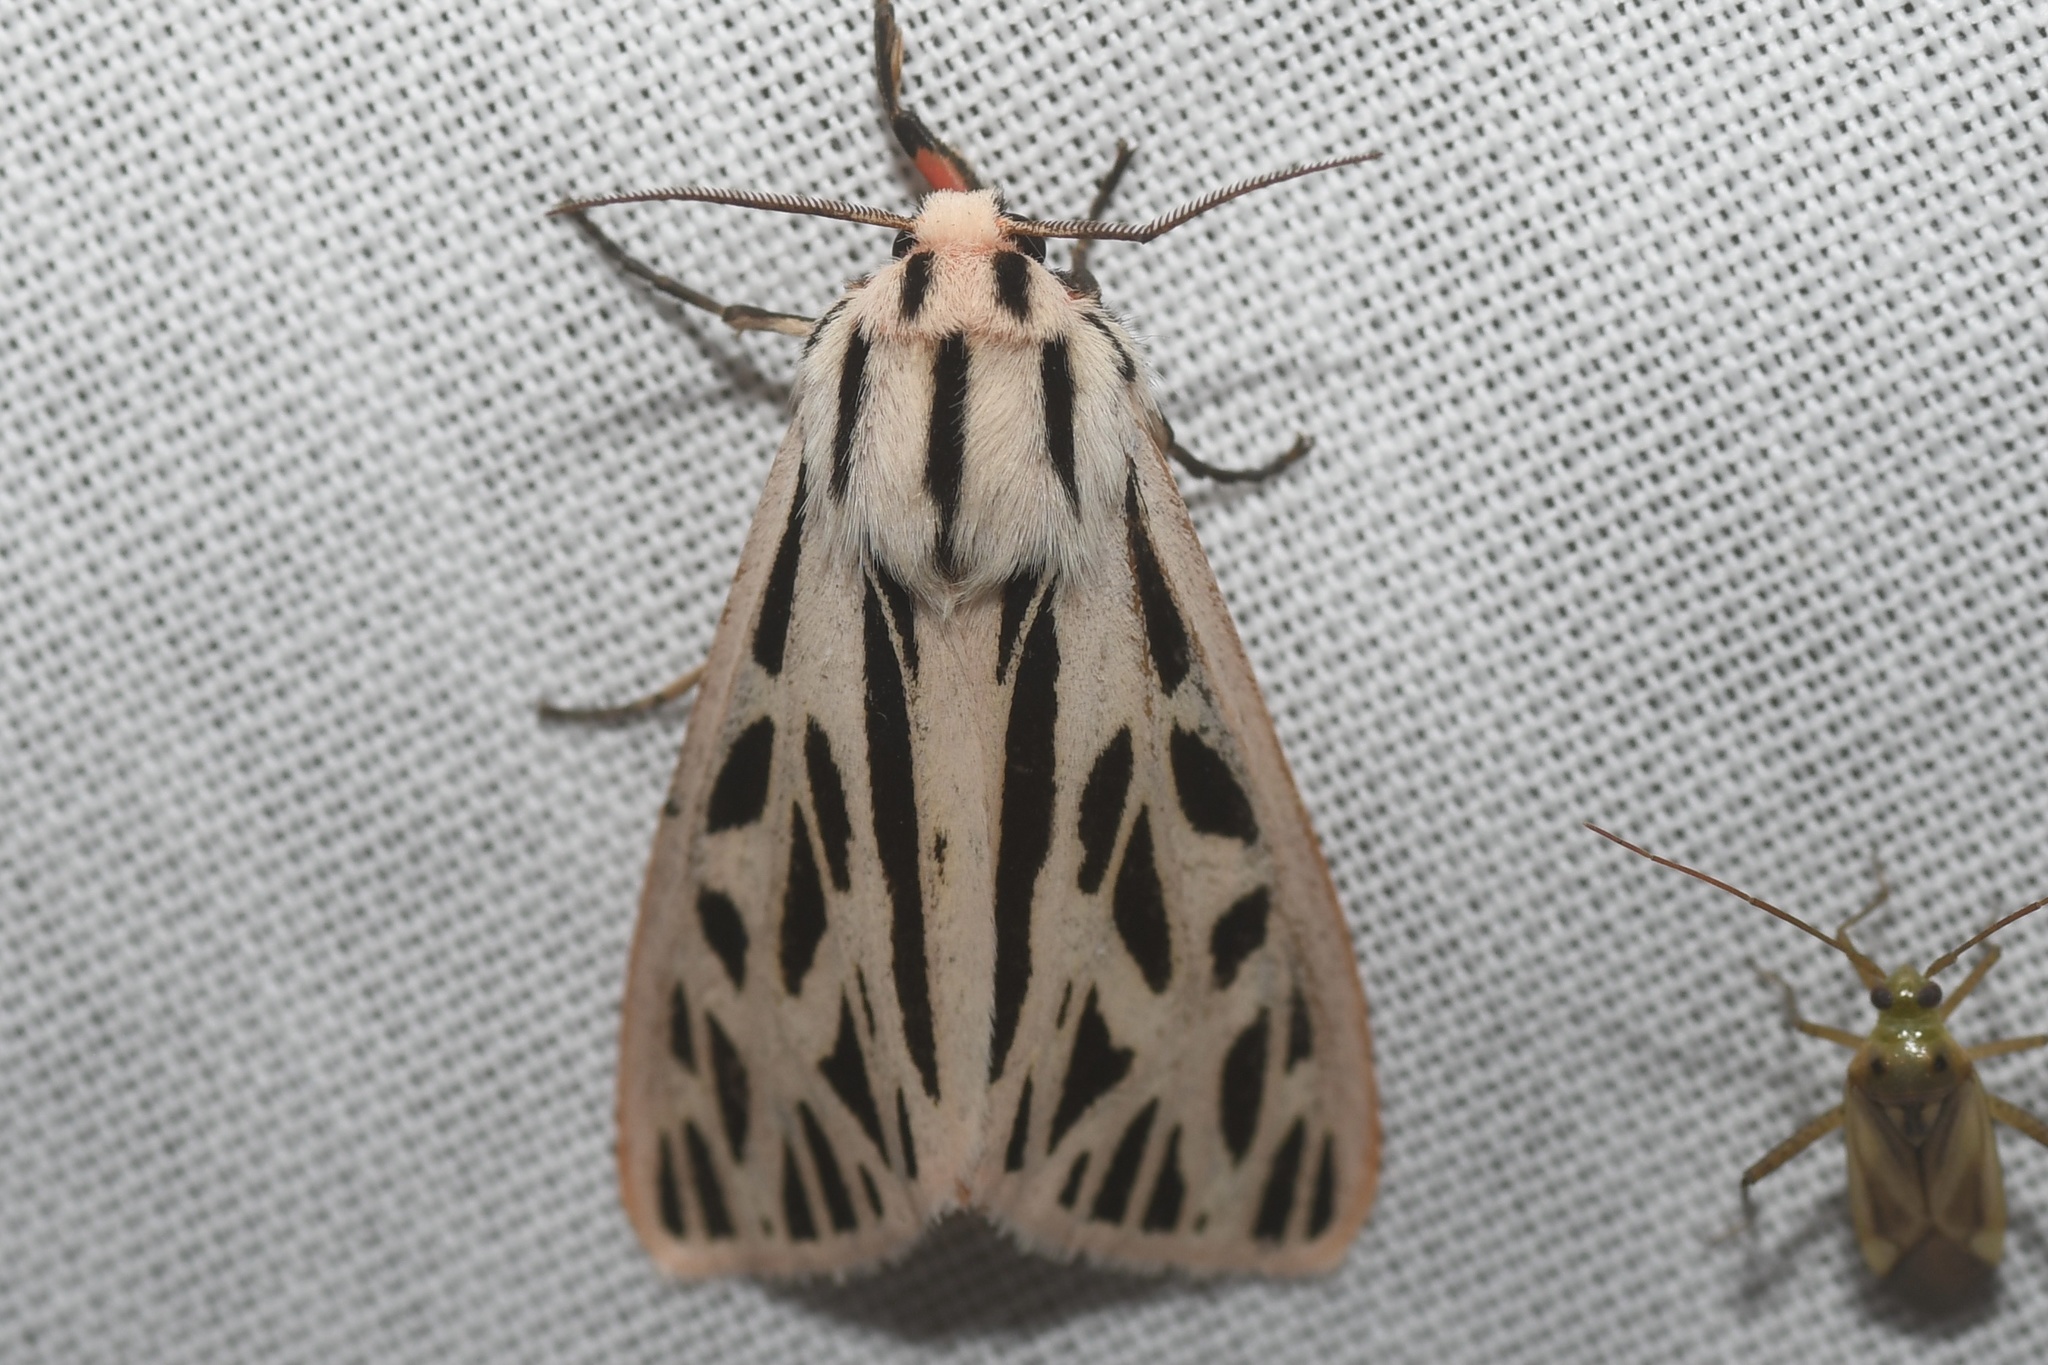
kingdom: Animalia
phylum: Arthropoda
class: Insecta
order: Lepidoptera
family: Erebidae
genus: Apantesis
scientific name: Apantesis arge
